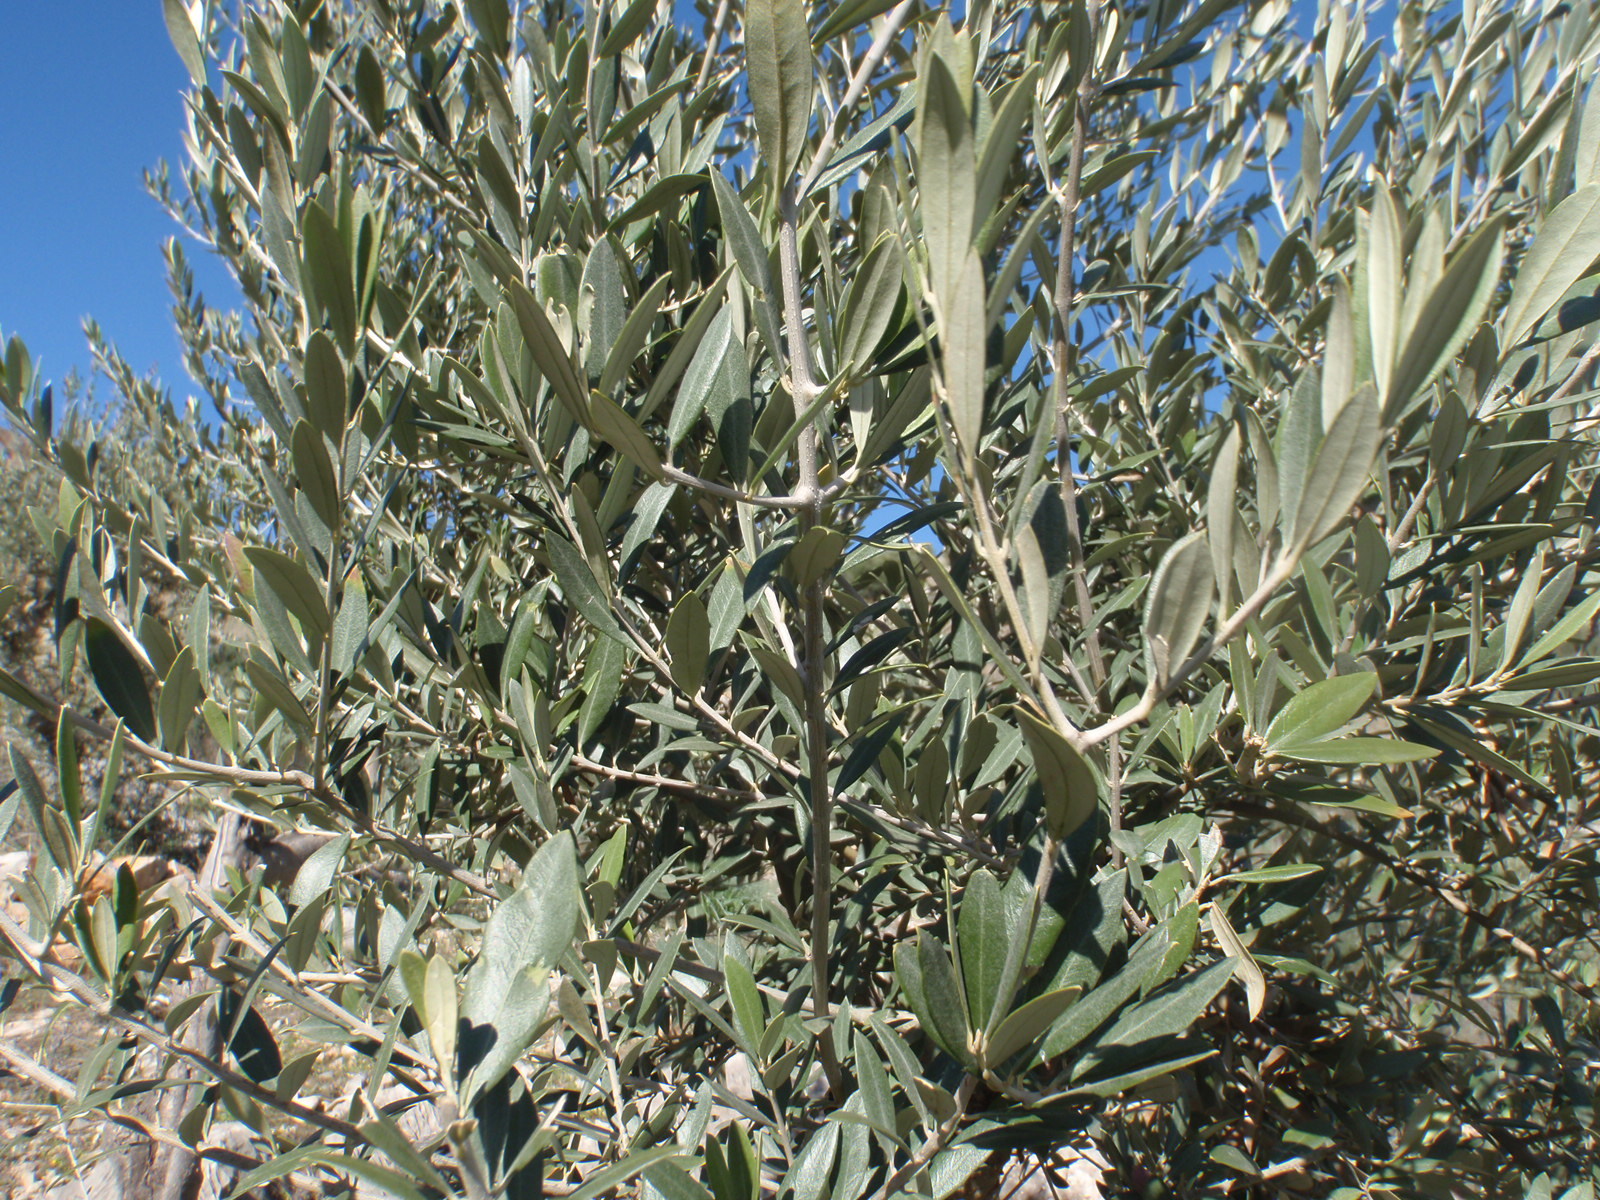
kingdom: Plantae
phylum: Tracheophyta
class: Magnoliopsida
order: Lamiales
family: Oleaceae
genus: Olea
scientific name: Olea europaea
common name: Olive
